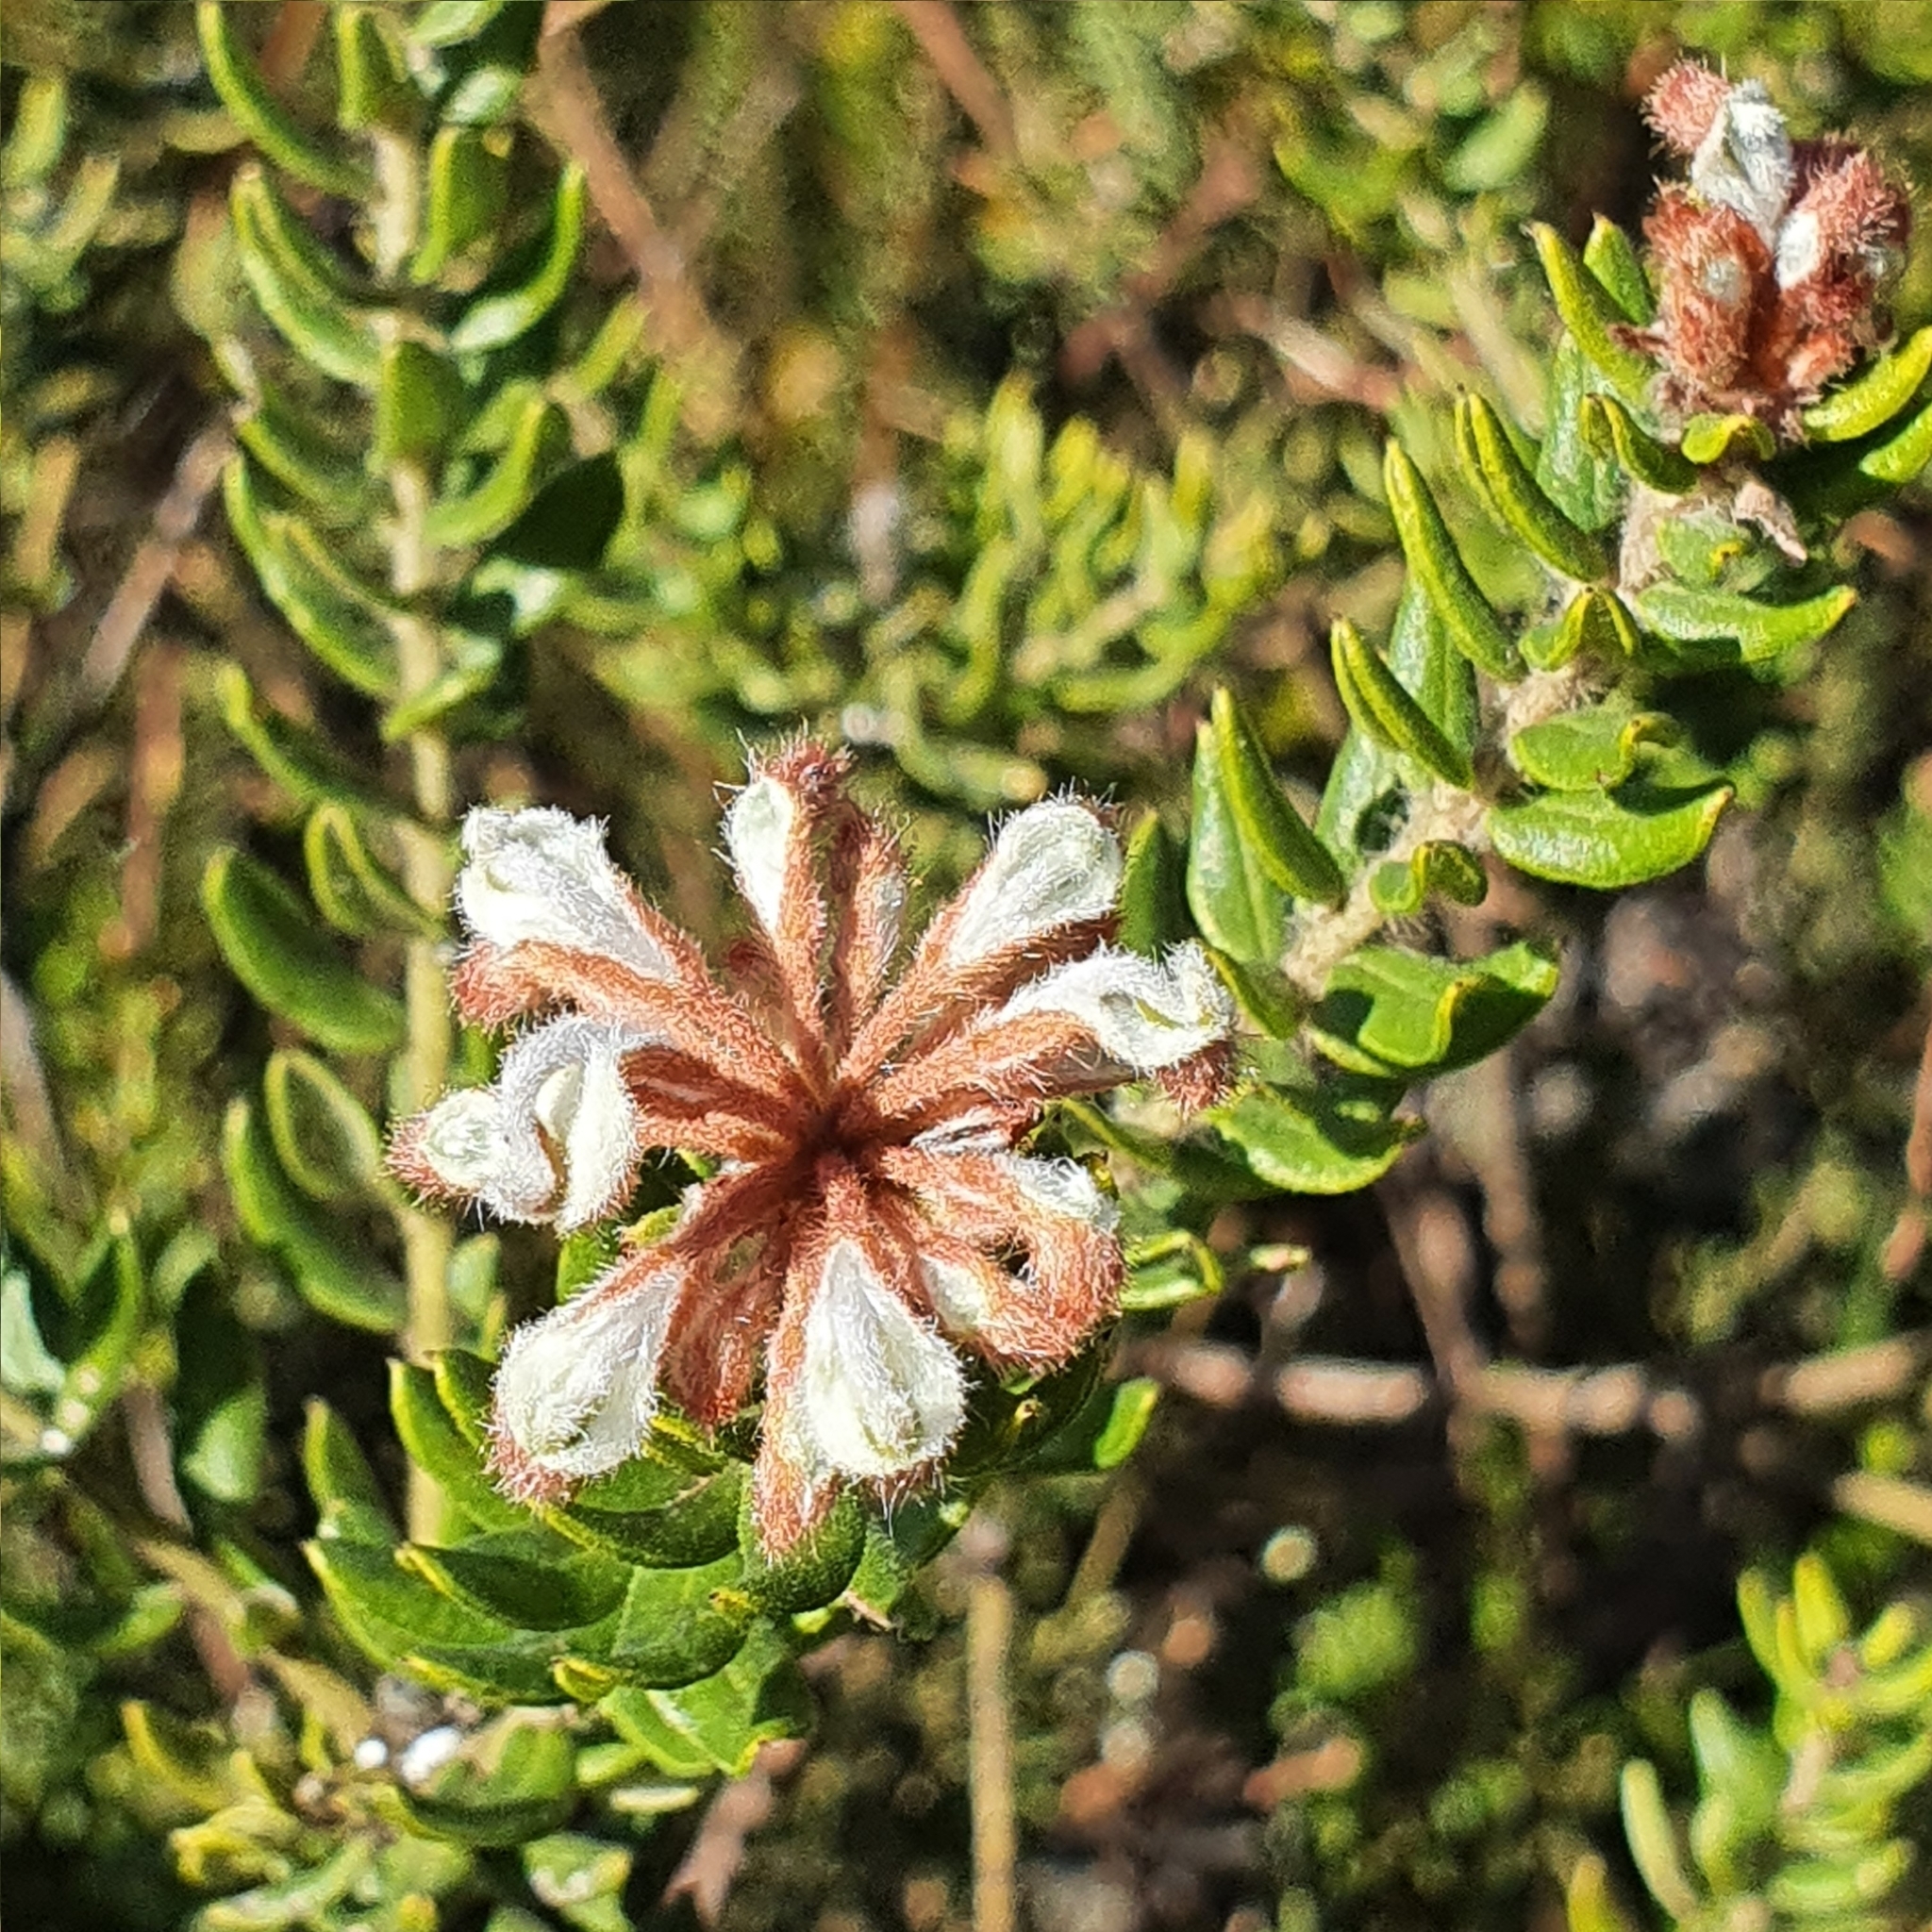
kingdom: Plantae
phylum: Tracheophyta
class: Magnoliopsida
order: Proteales
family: Proteaceae
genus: Grevillea
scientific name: Grevillea buxifolia
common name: Grey spiderflower
